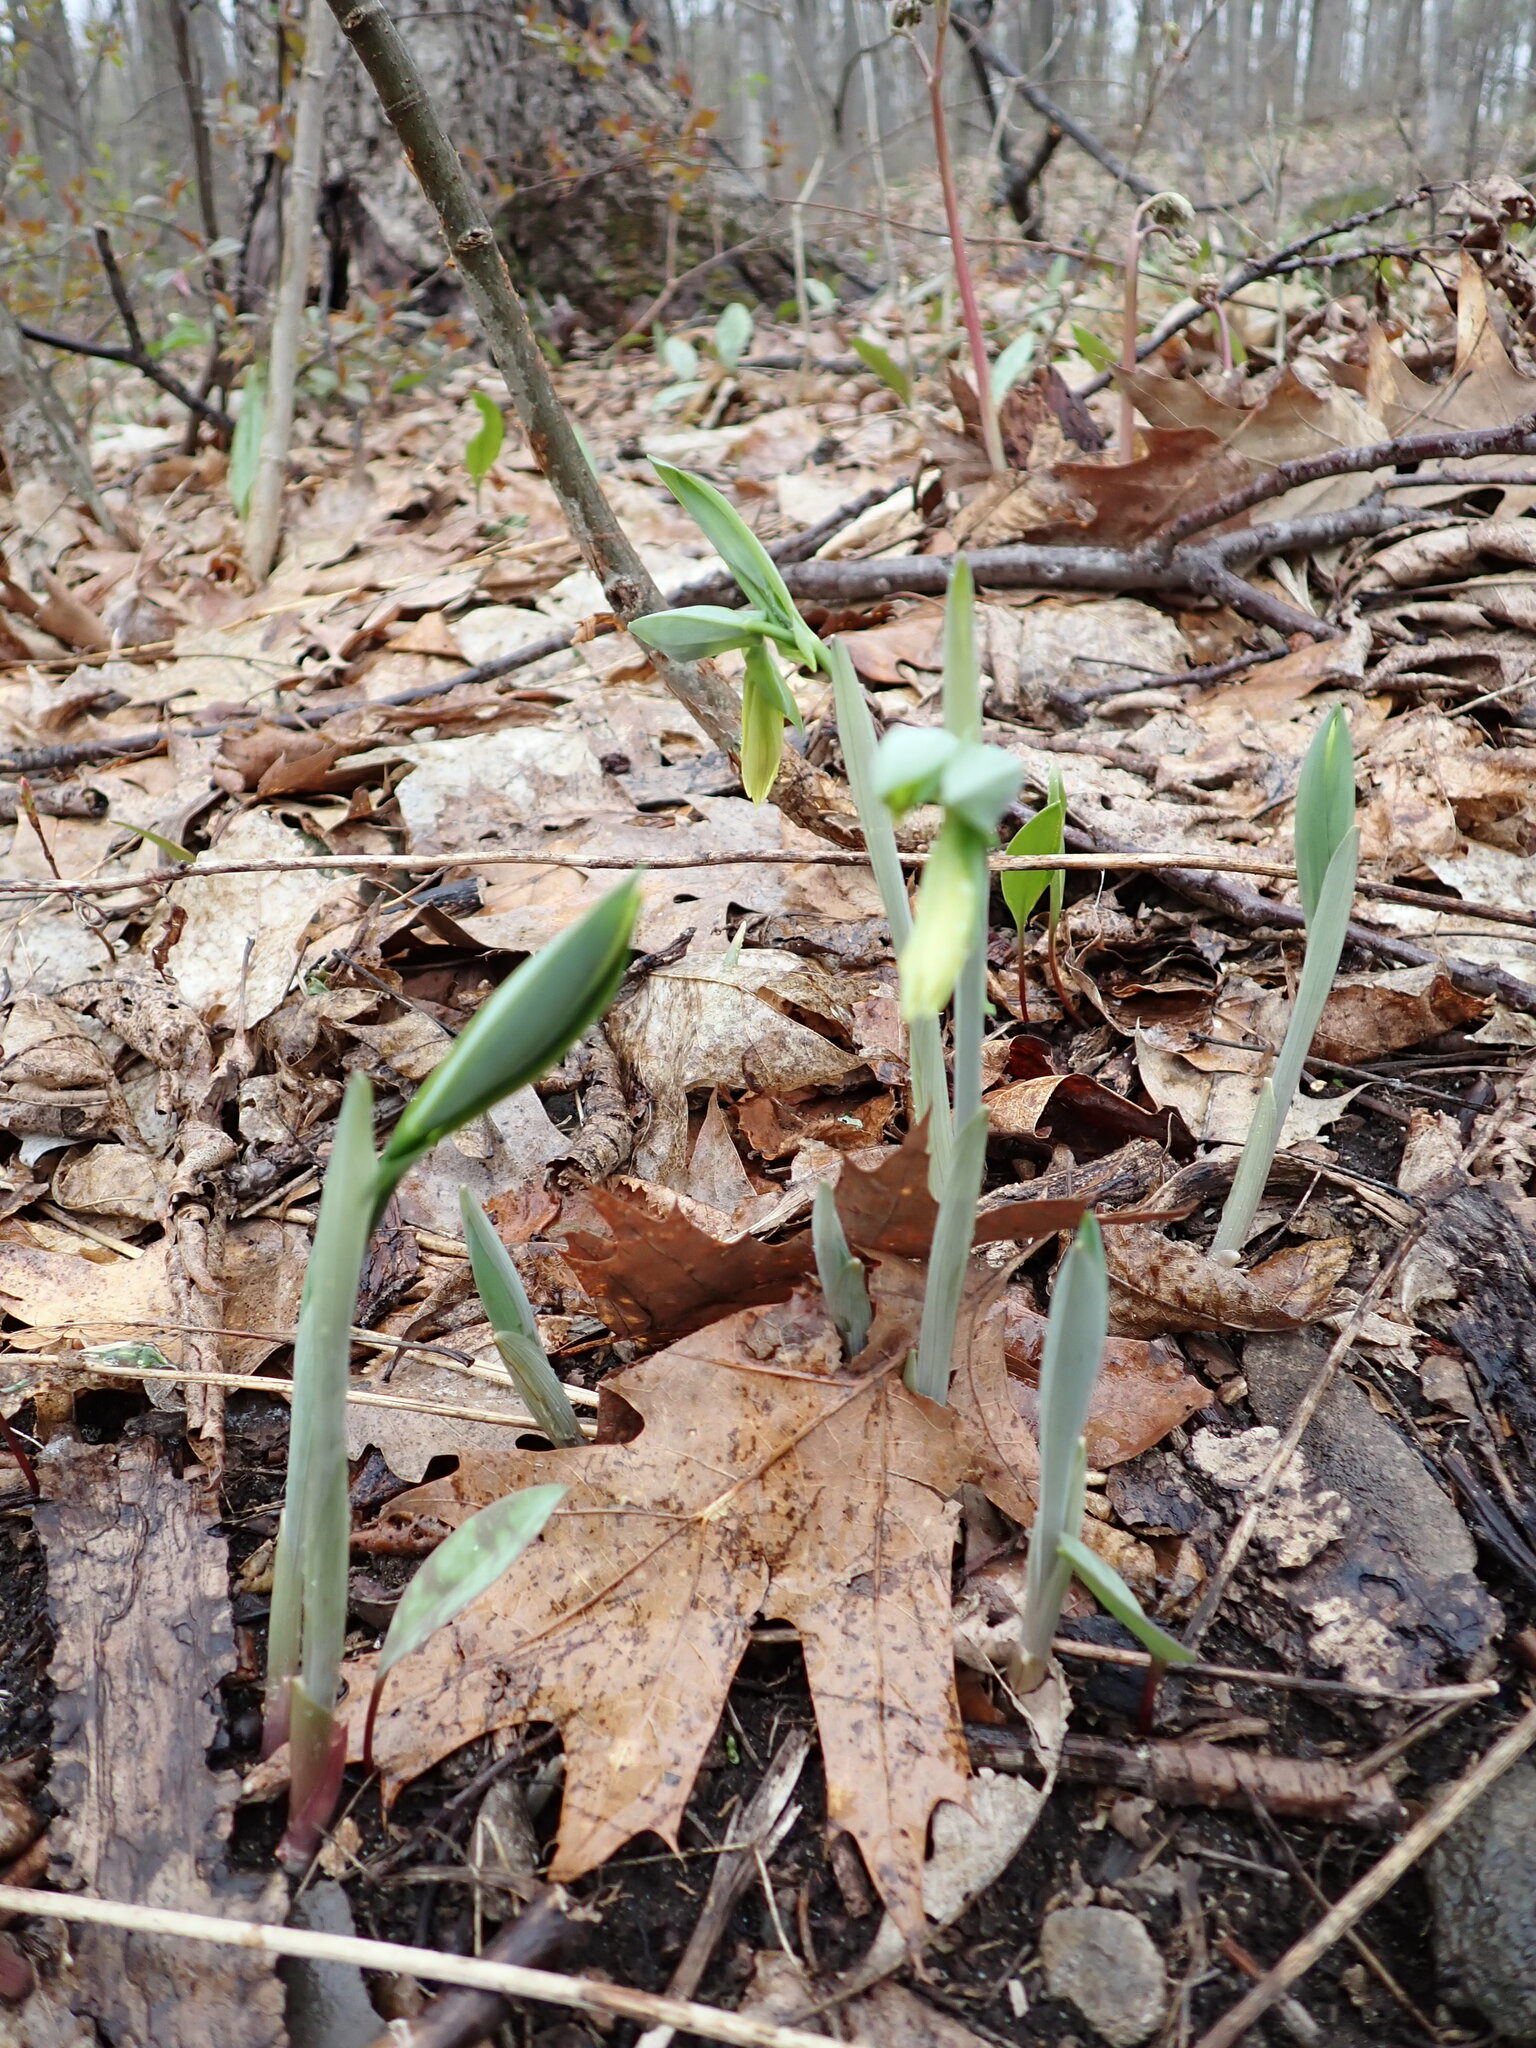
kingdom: Plantae
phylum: Tracheophyta
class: Liliopsida
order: Liliales
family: Colchicaceae
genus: Uvularia
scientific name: Uvularia grandiflora
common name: Bellwort
